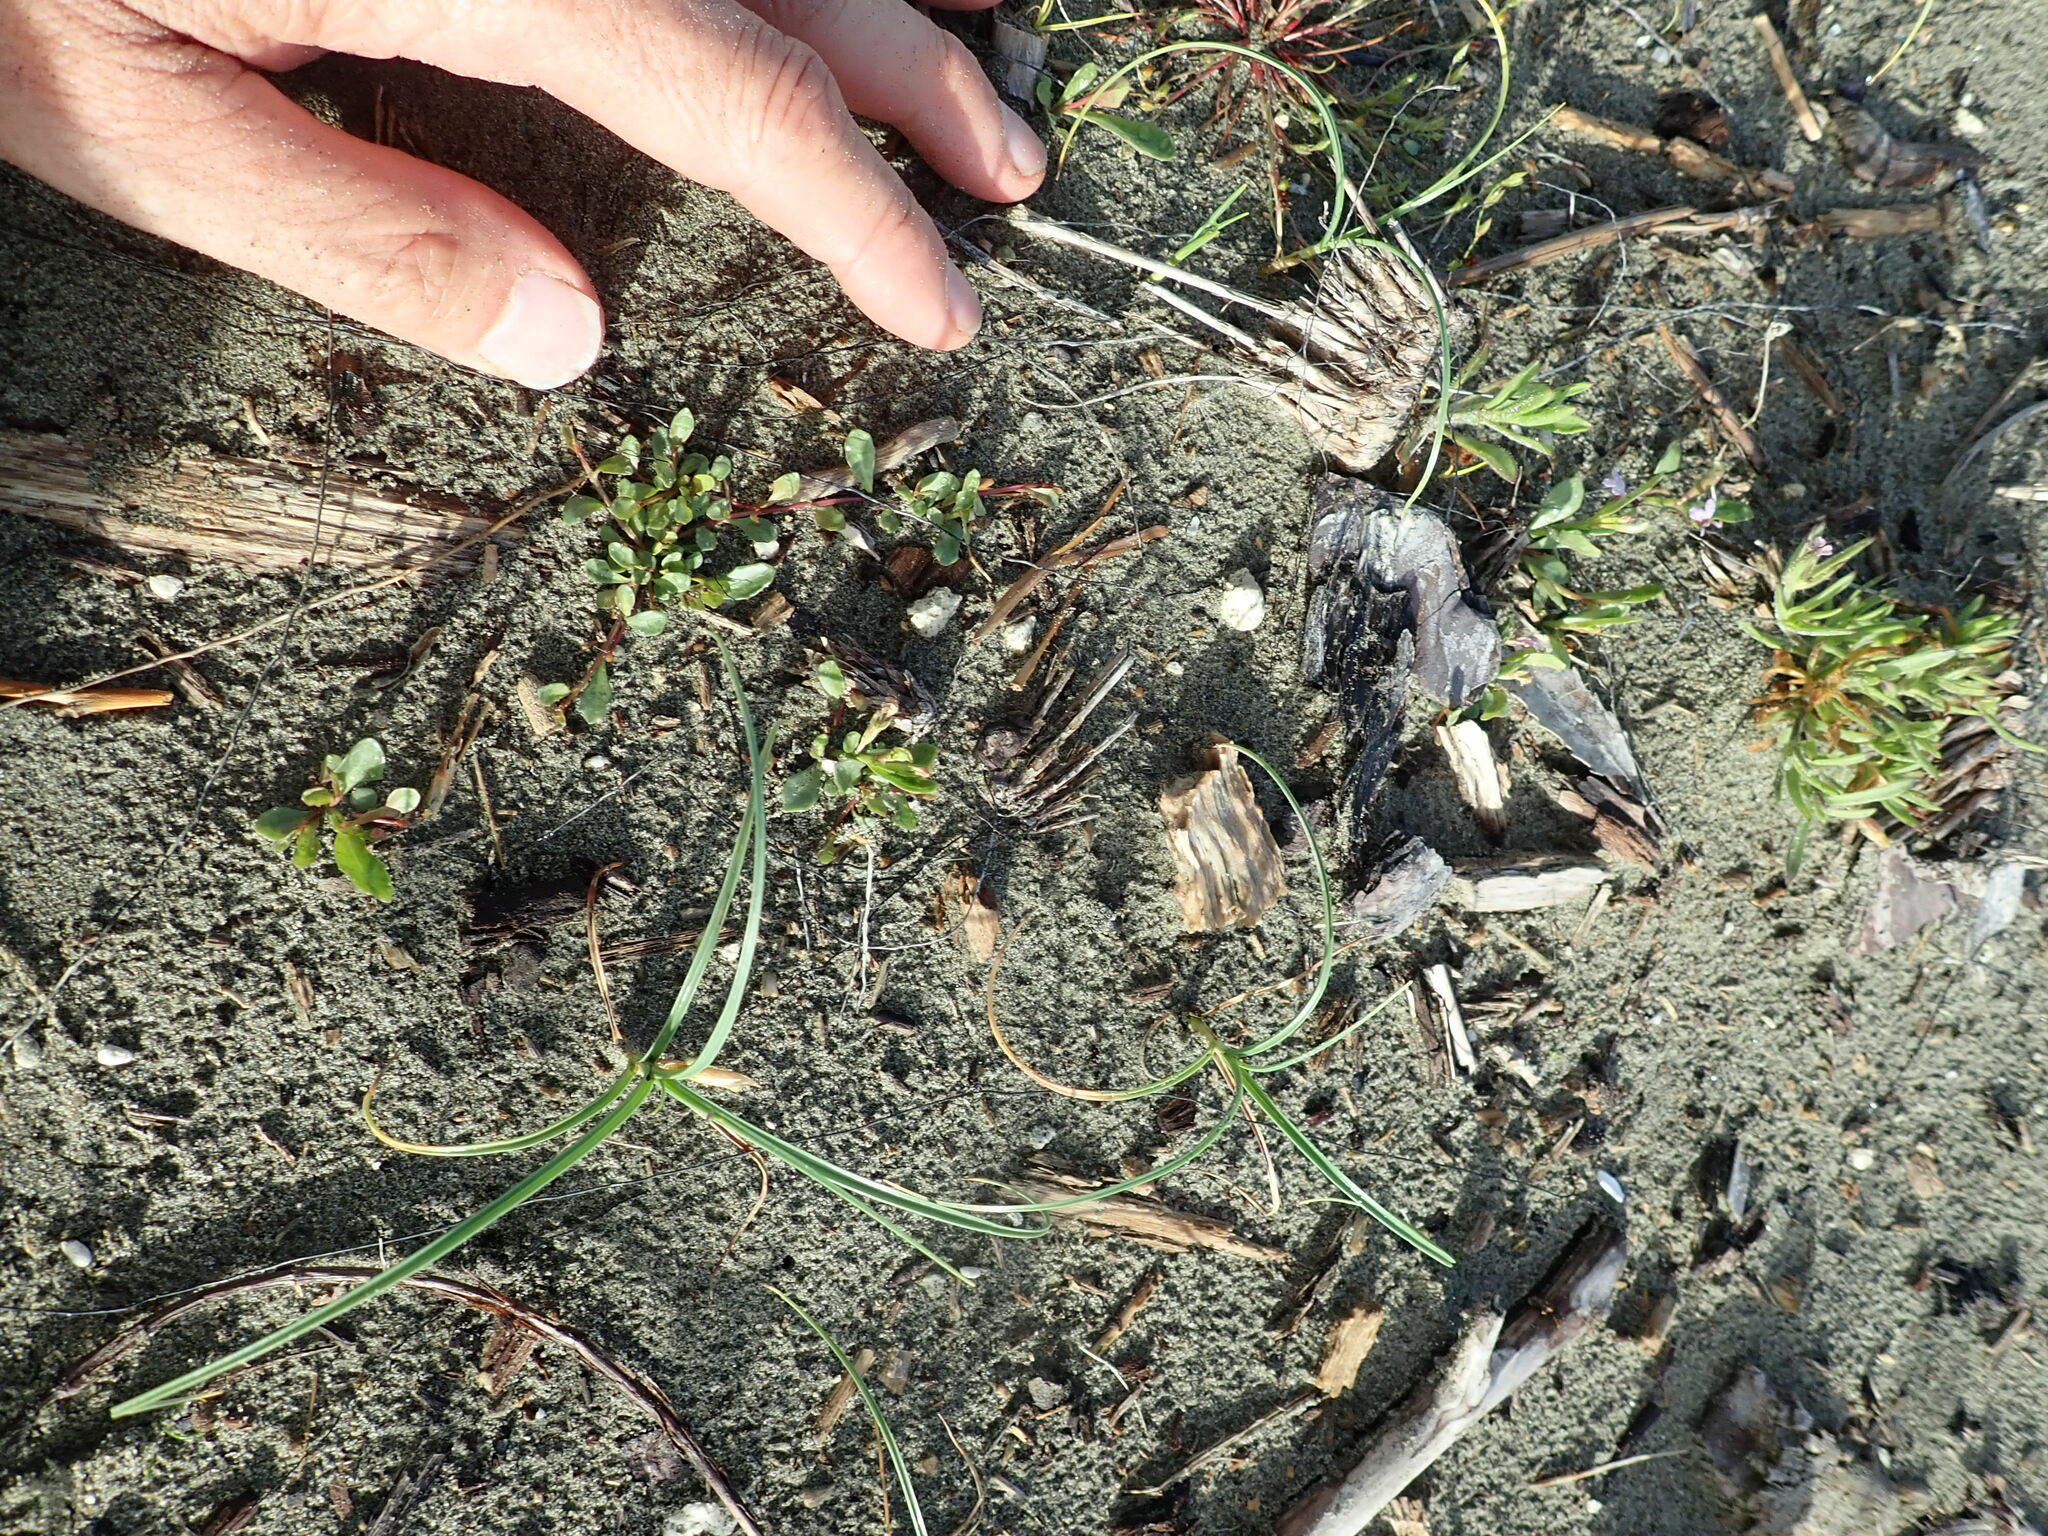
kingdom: Plantae
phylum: Tracheophyta
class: Magnoliopsida
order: Asterales
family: Campanulaceae
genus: Lobelia
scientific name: Lobelia anceps
